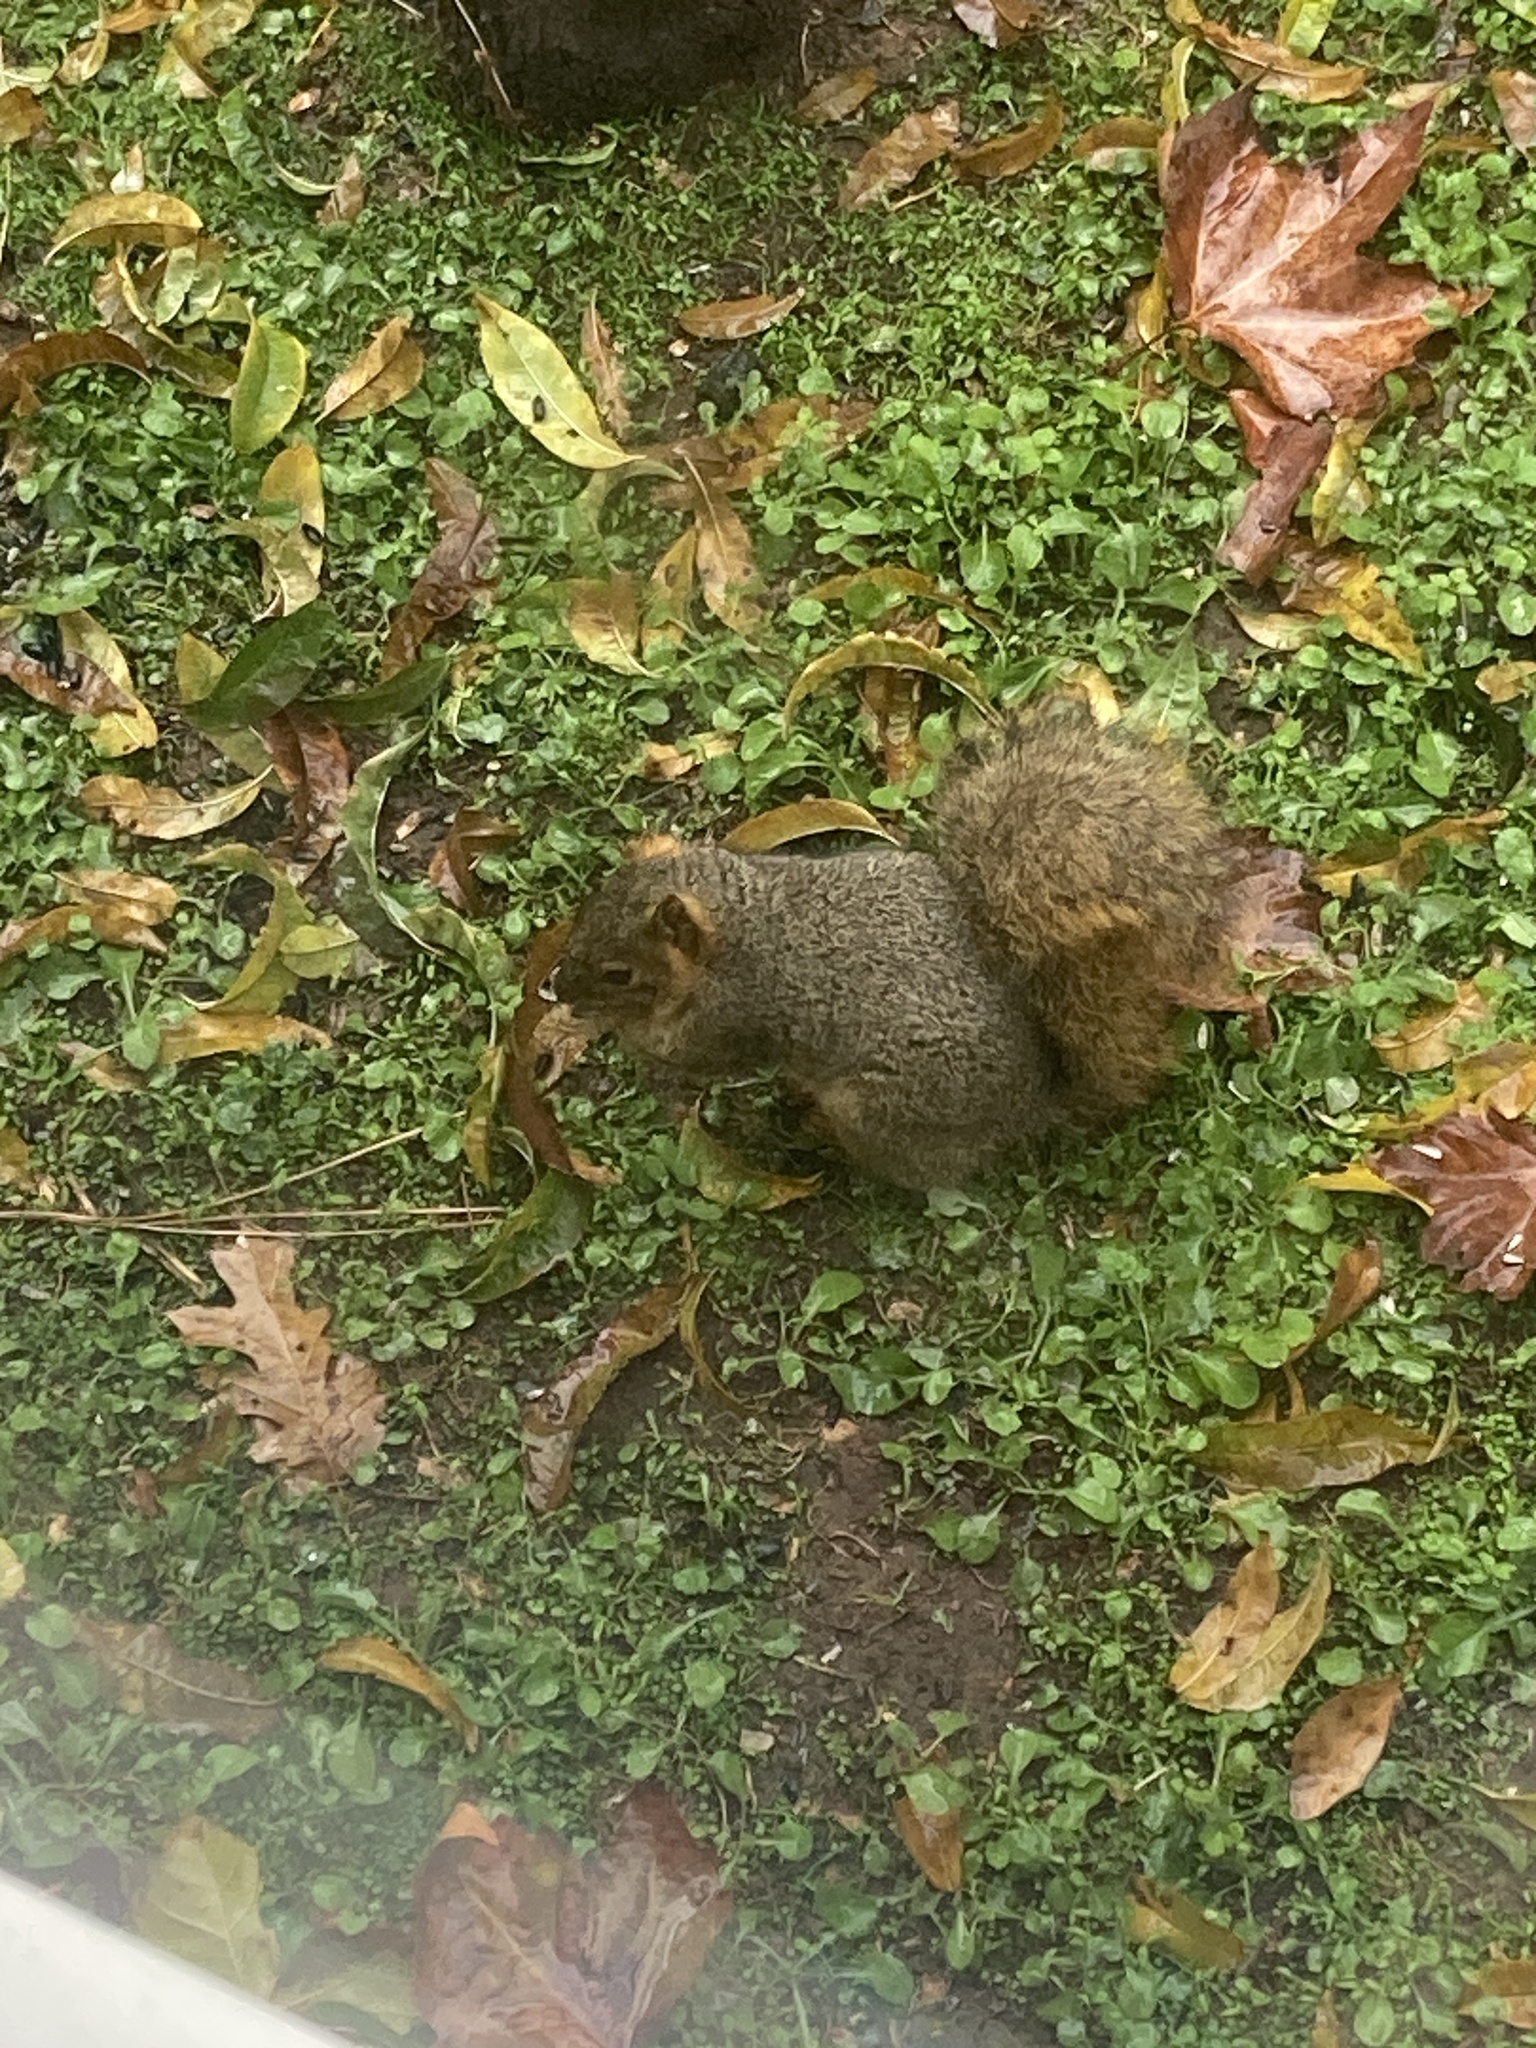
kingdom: Animalia
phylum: Chordata
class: Mammalia
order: Rodentia
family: Sciuridae
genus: Sciurus
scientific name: Sciurus niger
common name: Fox squirrel
